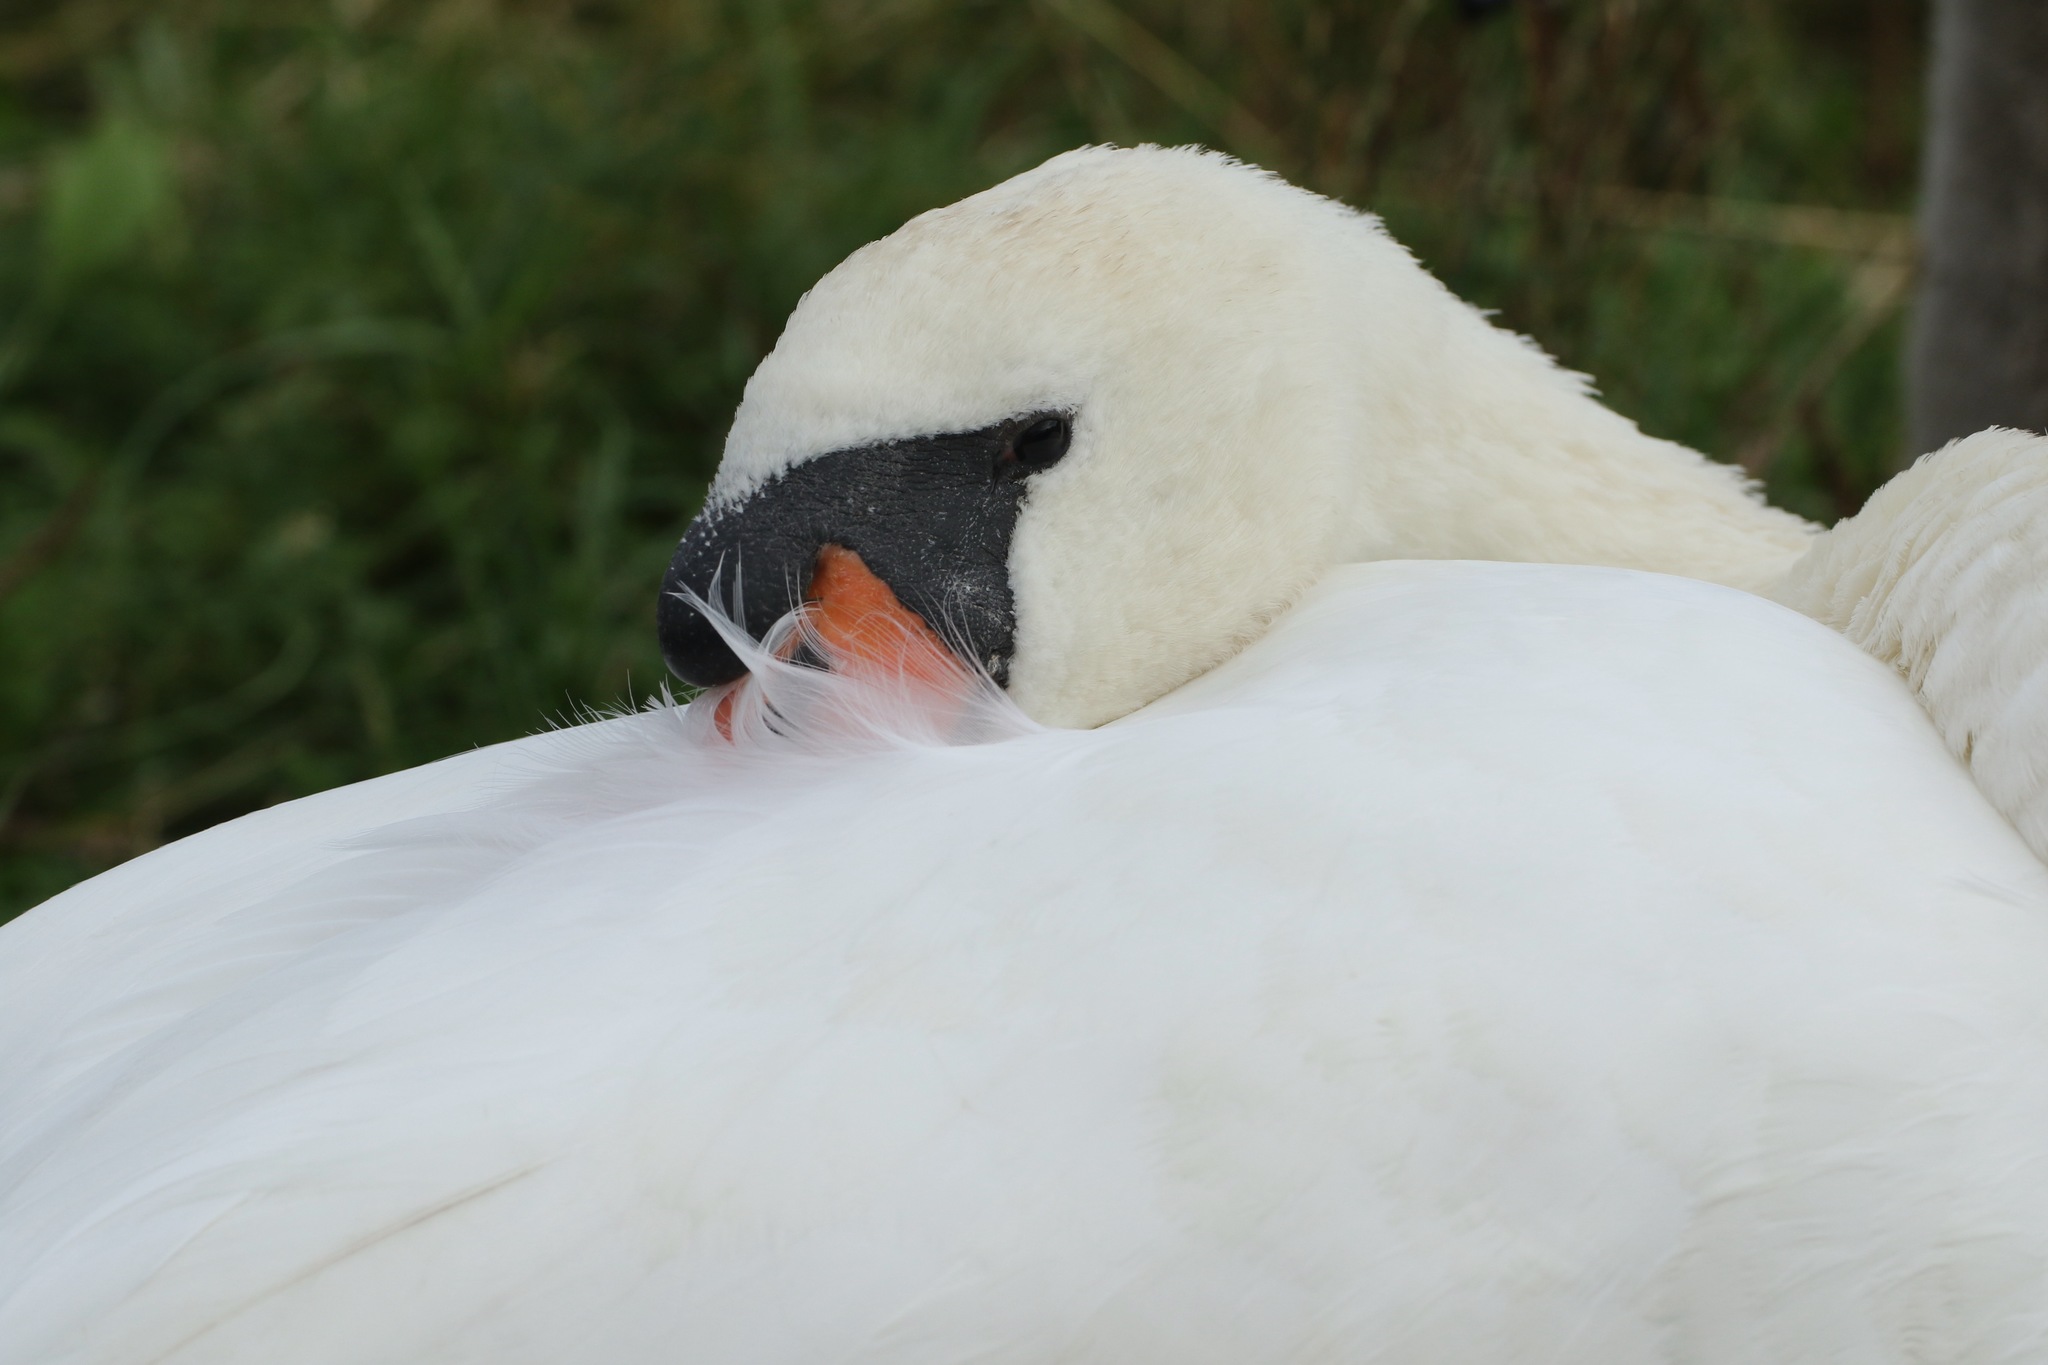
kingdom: Animalia
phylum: Chordata
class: Aves
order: Anseriformes
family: Anatidae
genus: Cygnus
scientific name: Cygnus olor
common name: Mute swan
